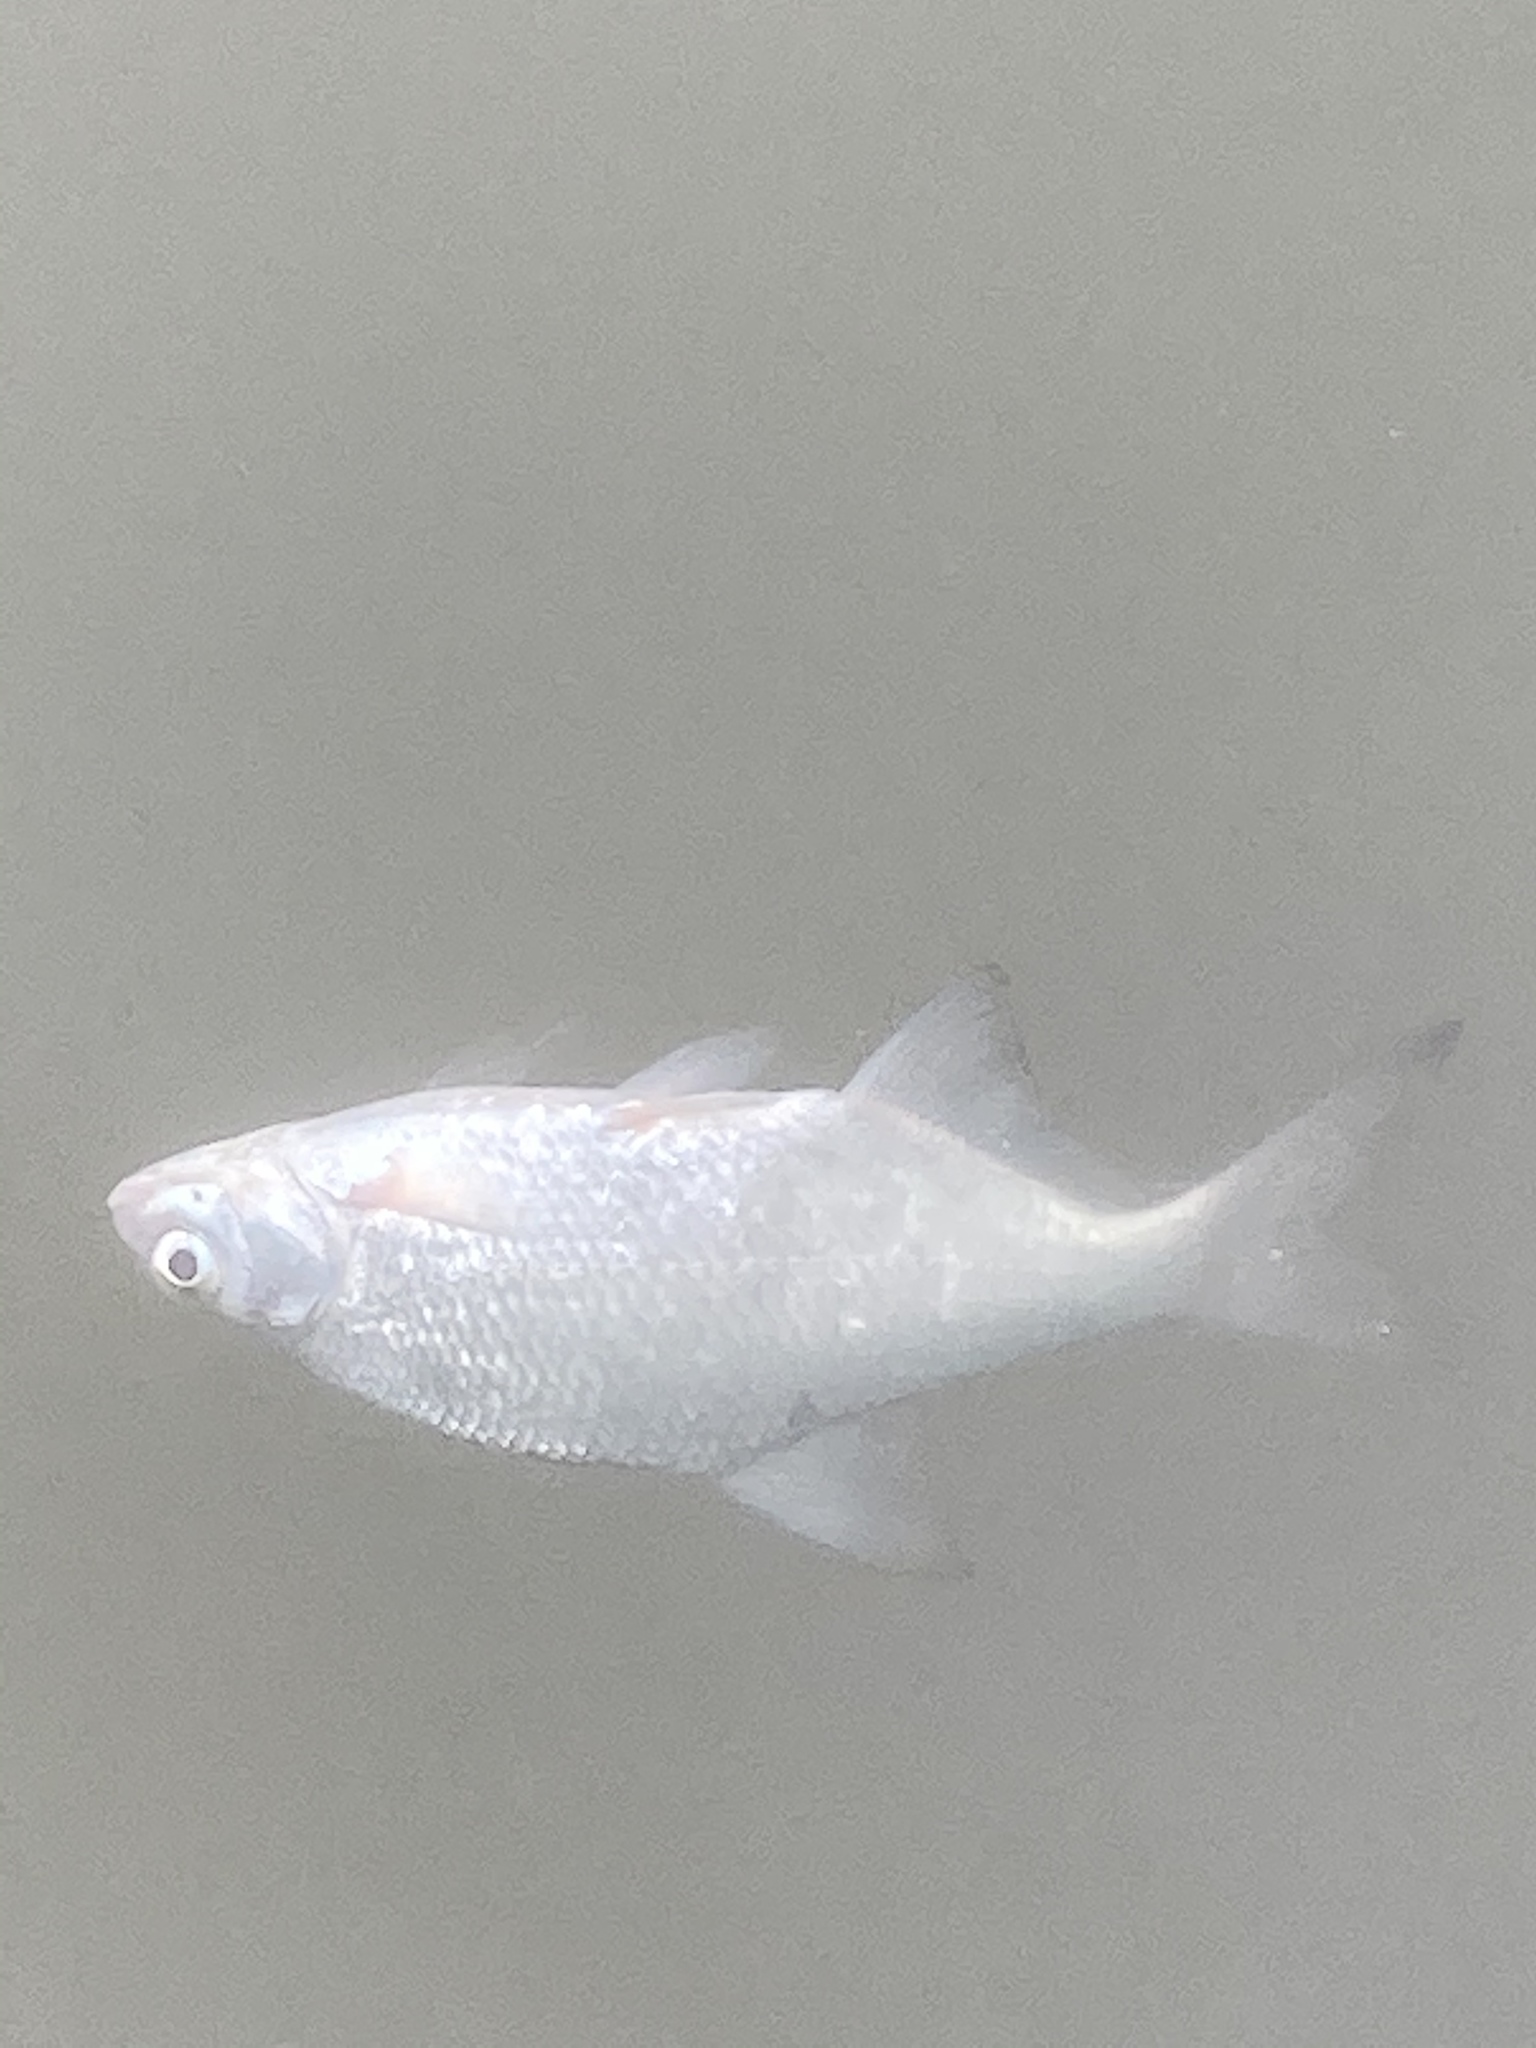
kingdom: Animalia
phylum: Chordata
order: Cypriniformes
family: Cyprinidae
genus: Blicca
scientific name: Blicca bjoerkna
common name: White bream
